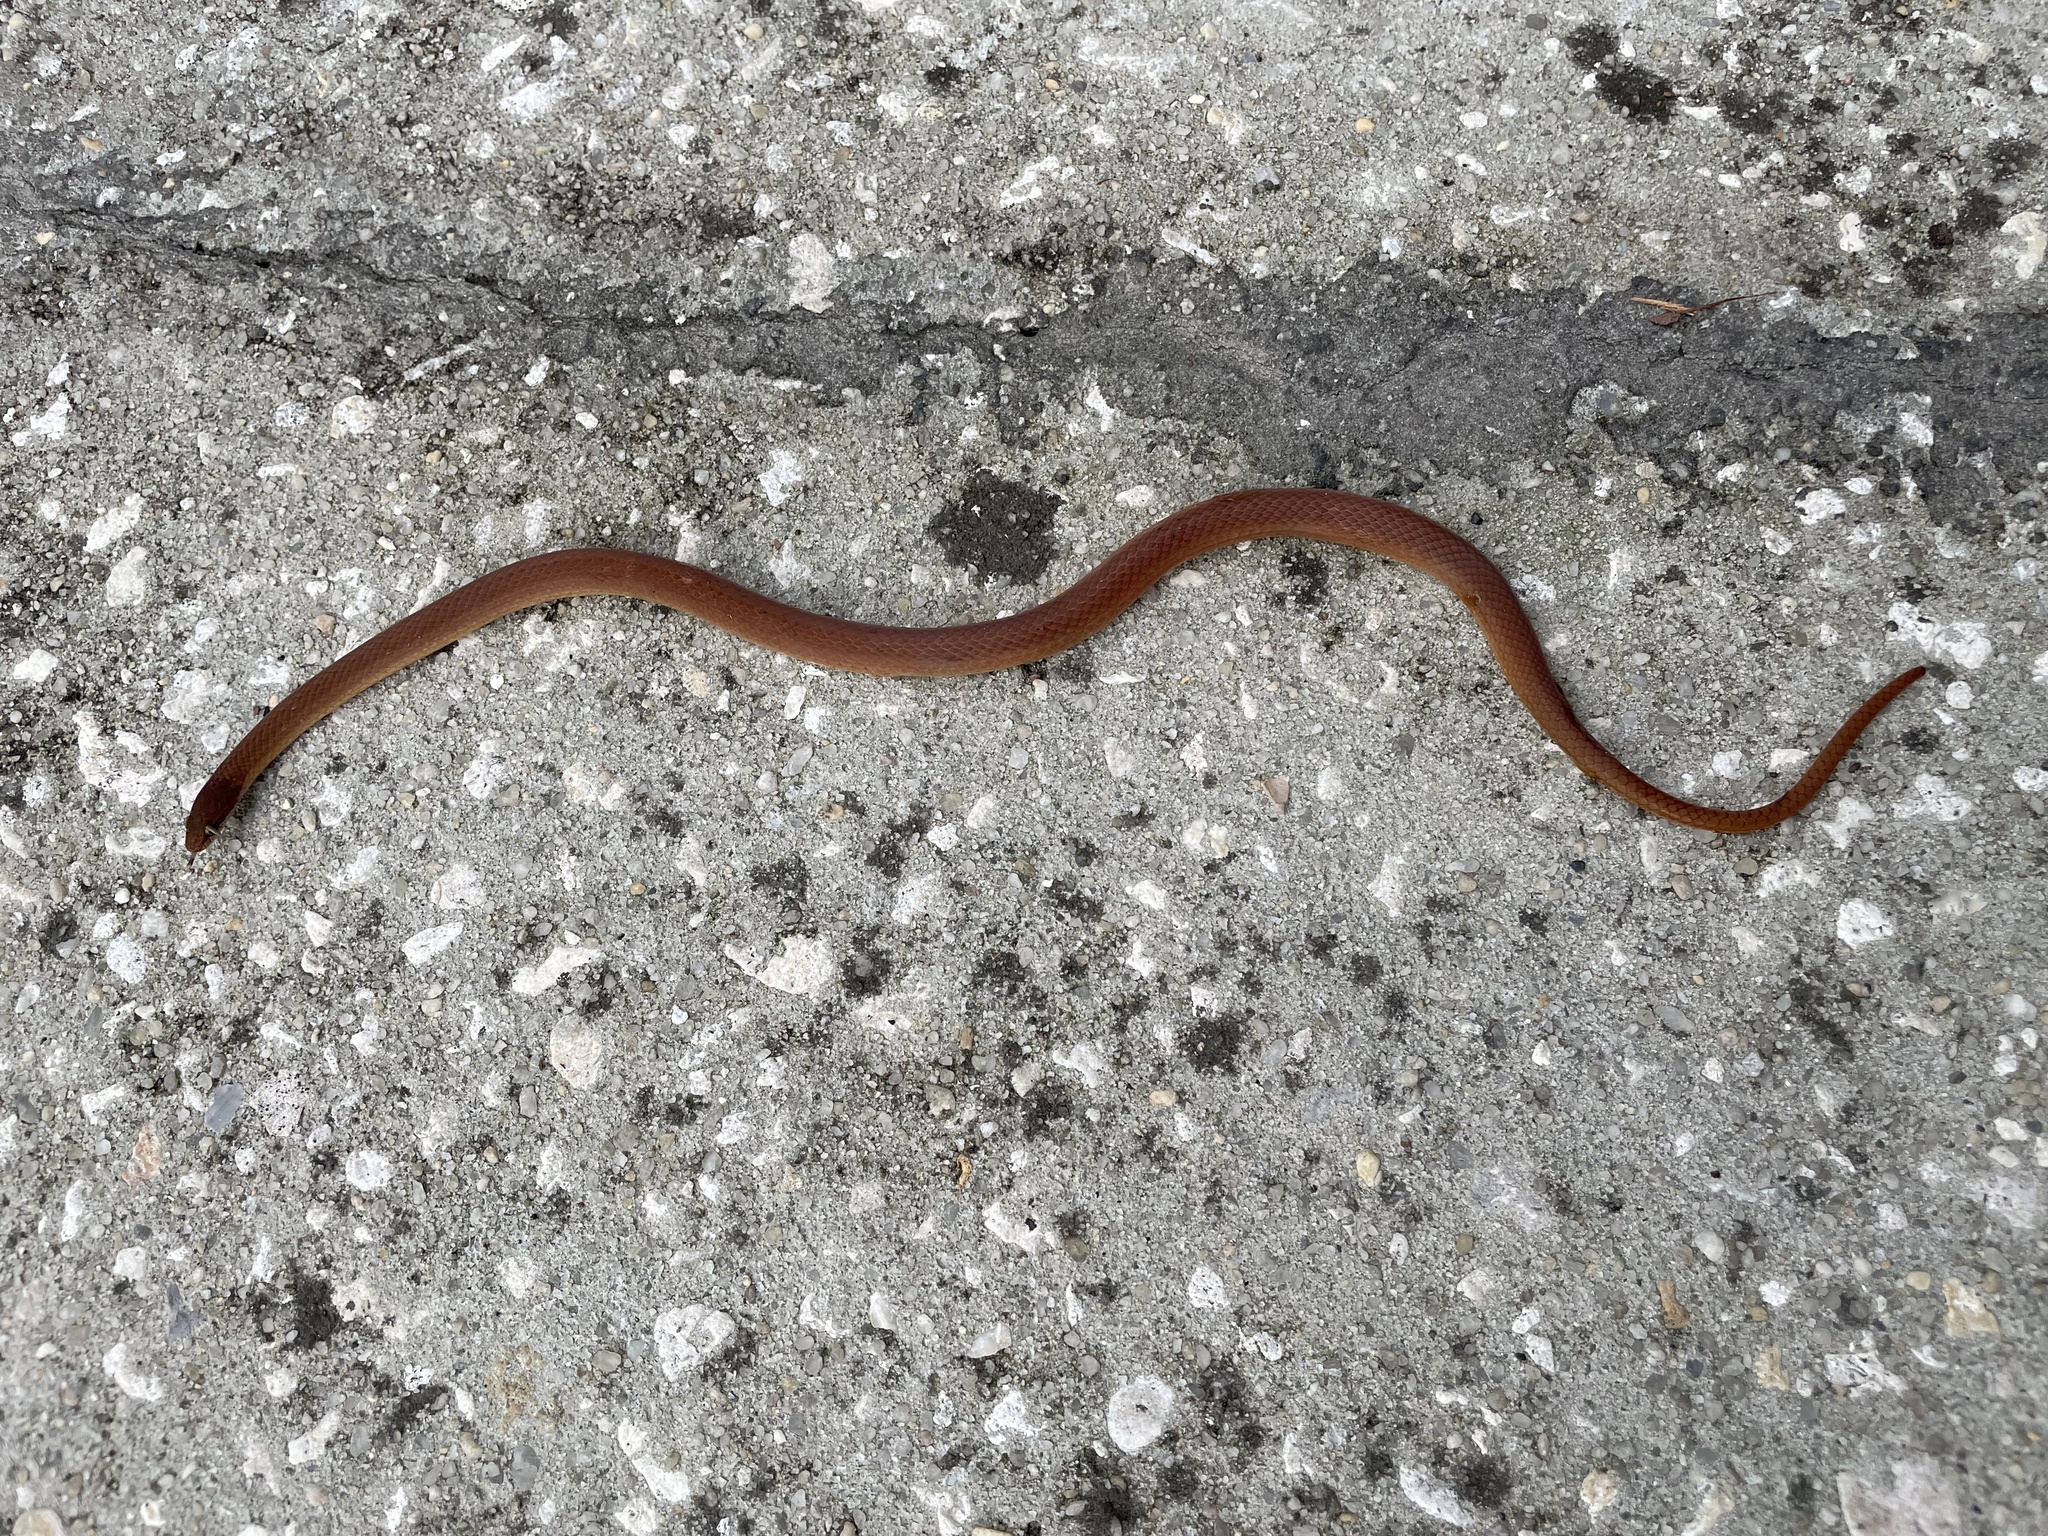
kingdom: Animalia
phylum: Chordata
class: Squamata
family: Colubridae
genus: Rhadinaea
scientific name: Rhadinaea flavilata
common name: Pine woods littersnake
